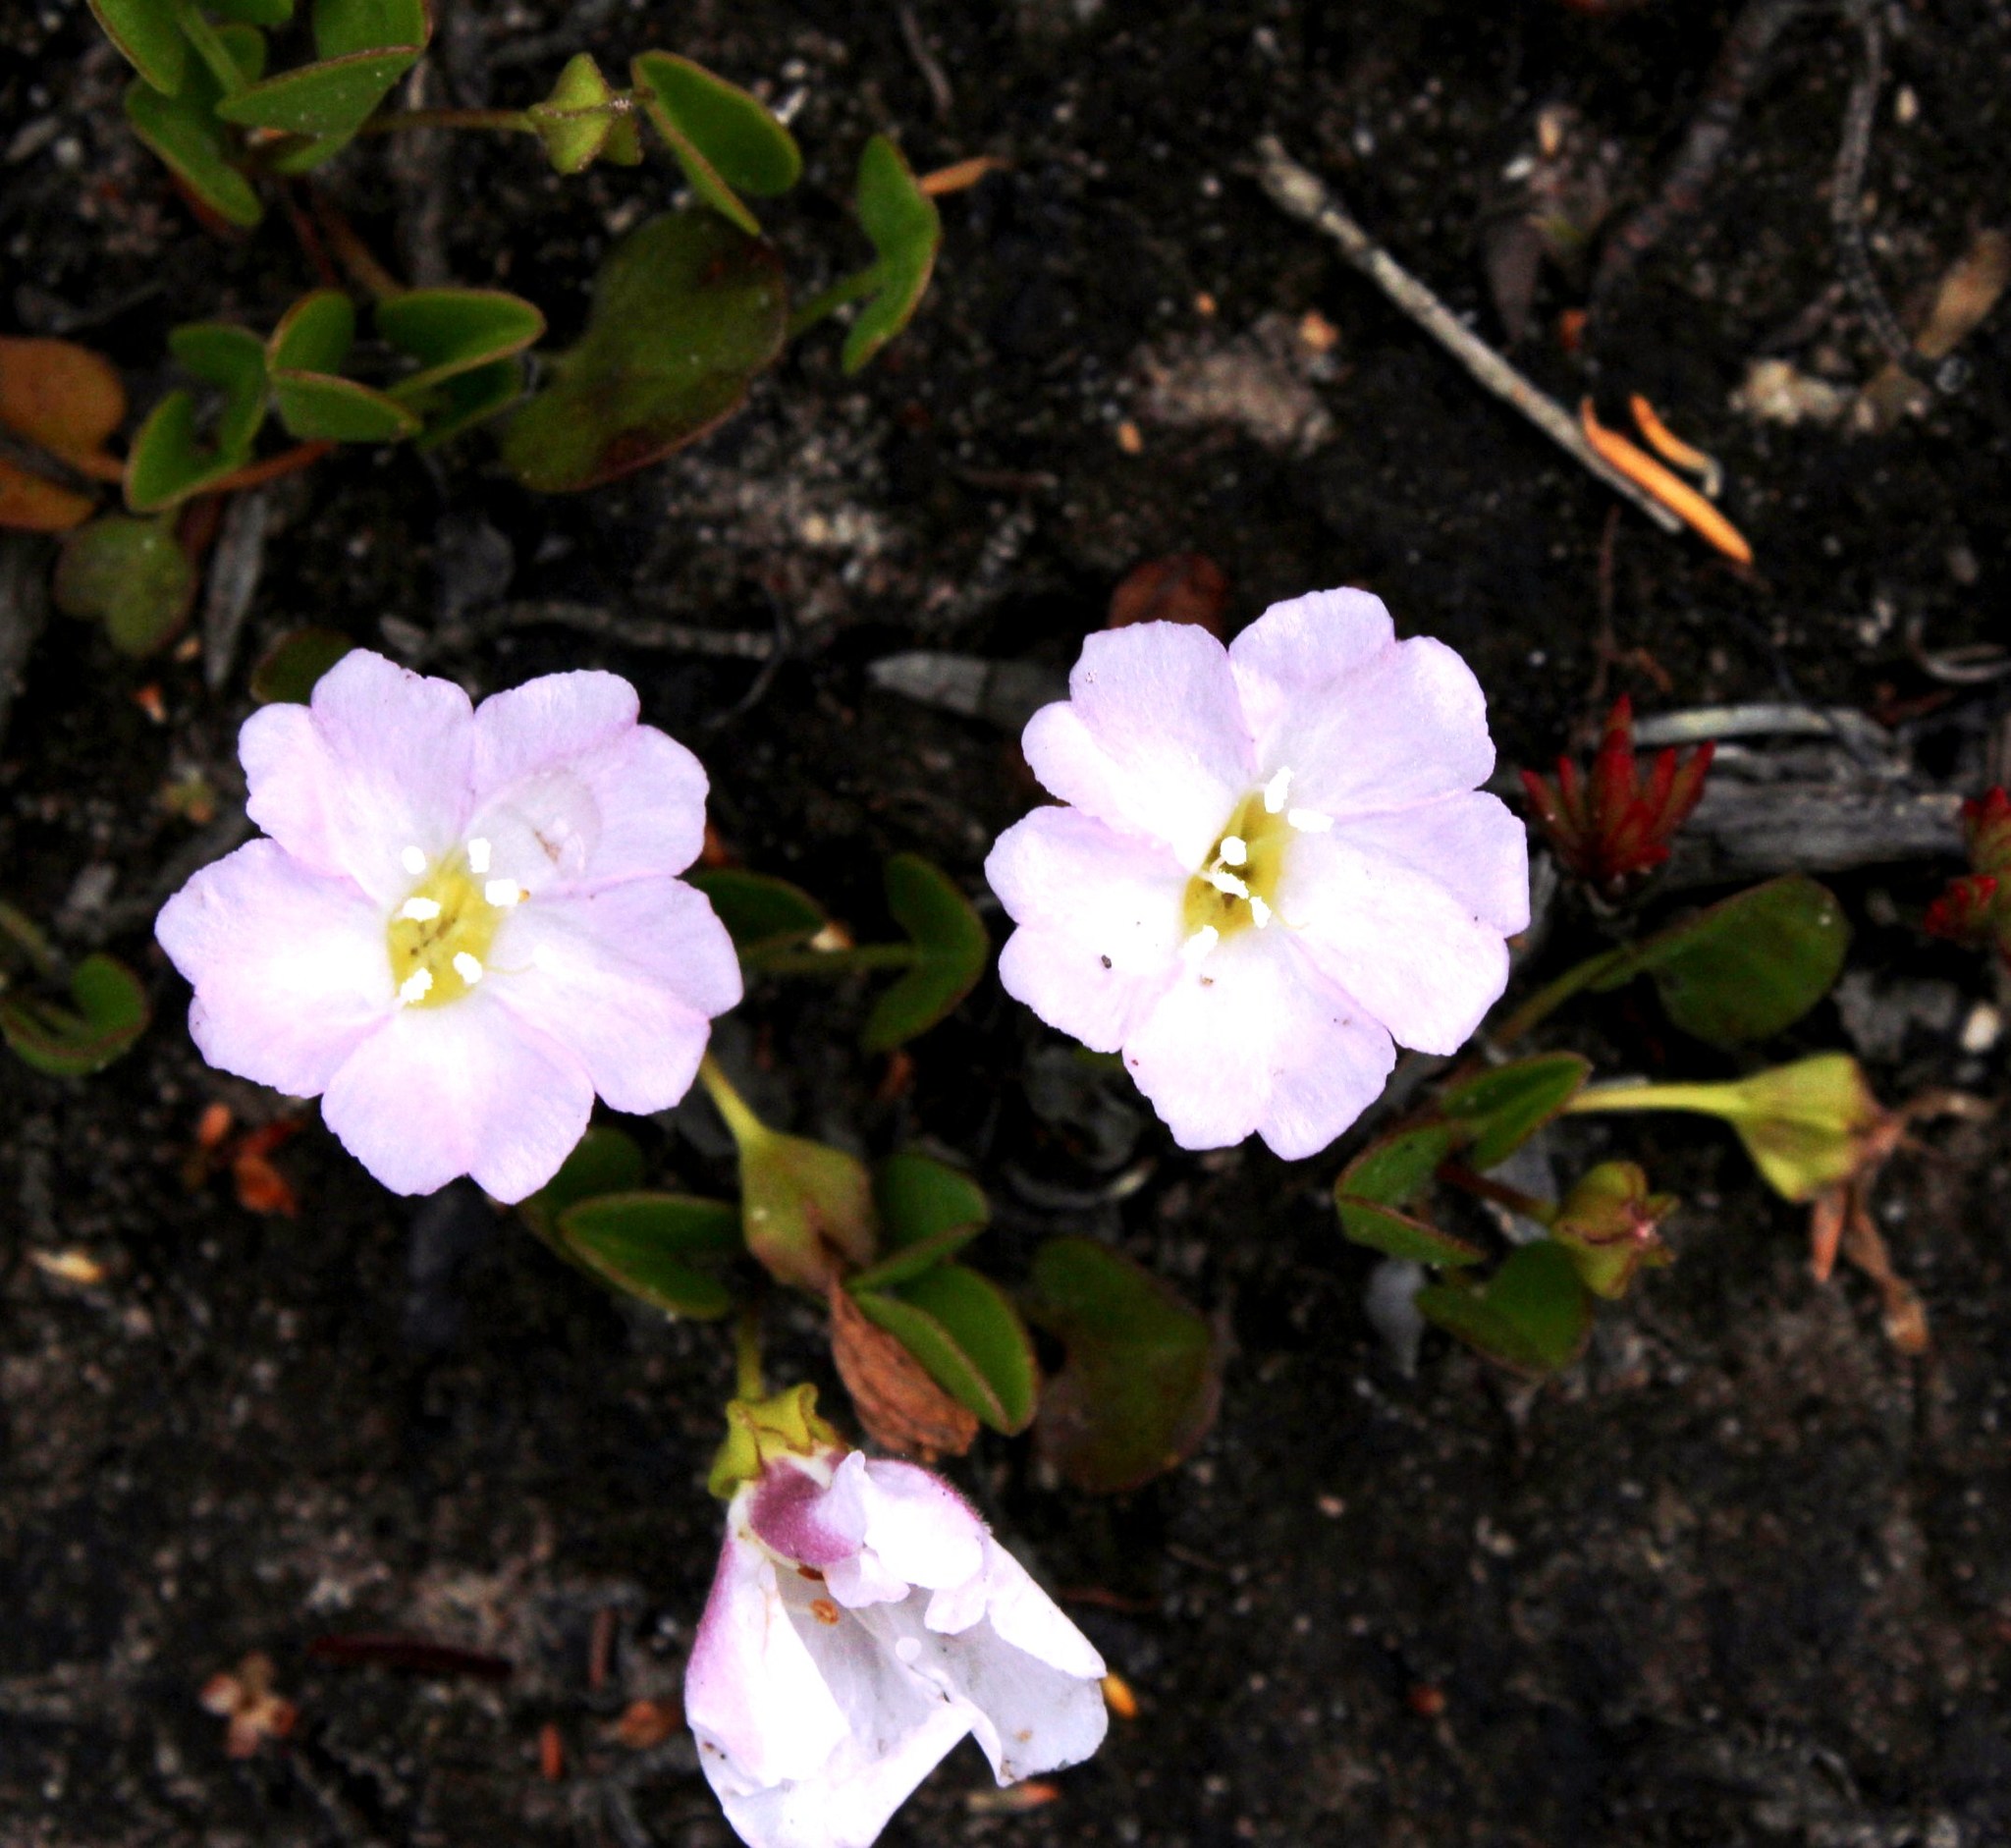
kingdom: Plantae
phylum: Tracheophyta
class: Magnoliopsida
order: Solanales
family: Convolvulaceae
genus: Falkia
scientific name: Falkia repens
